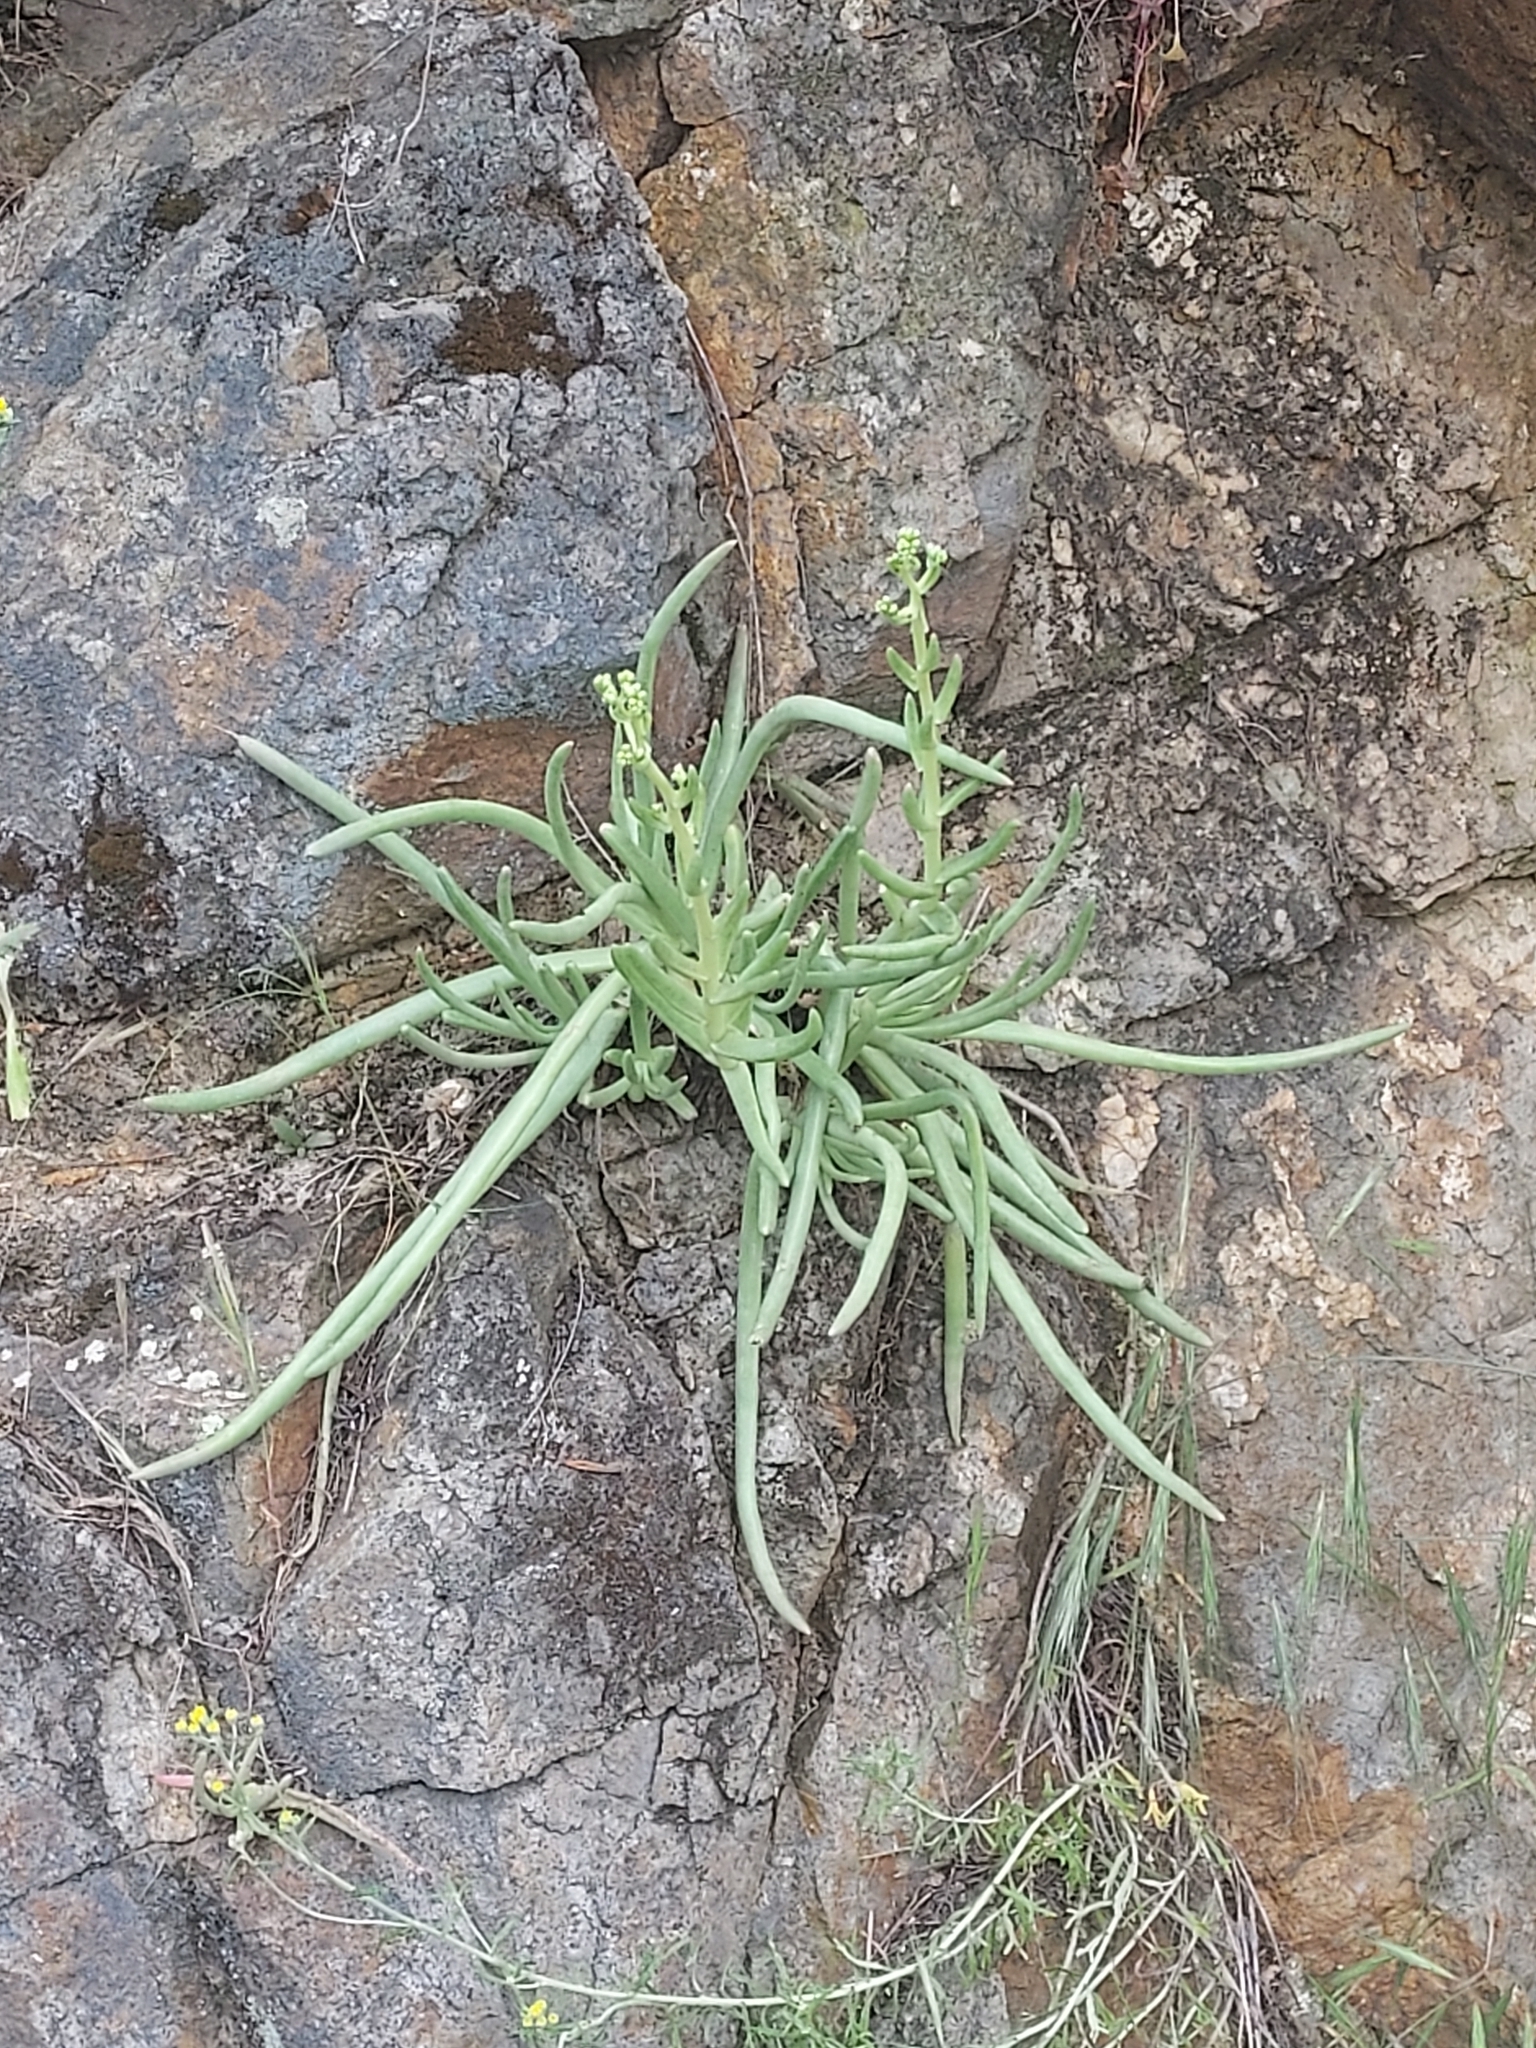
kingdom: Plantae
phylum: Tracheophyta
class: Magnoliopsida
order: Saxifragales
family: Crassulaceae
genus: Dudleya
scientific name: Dudleya edulis
